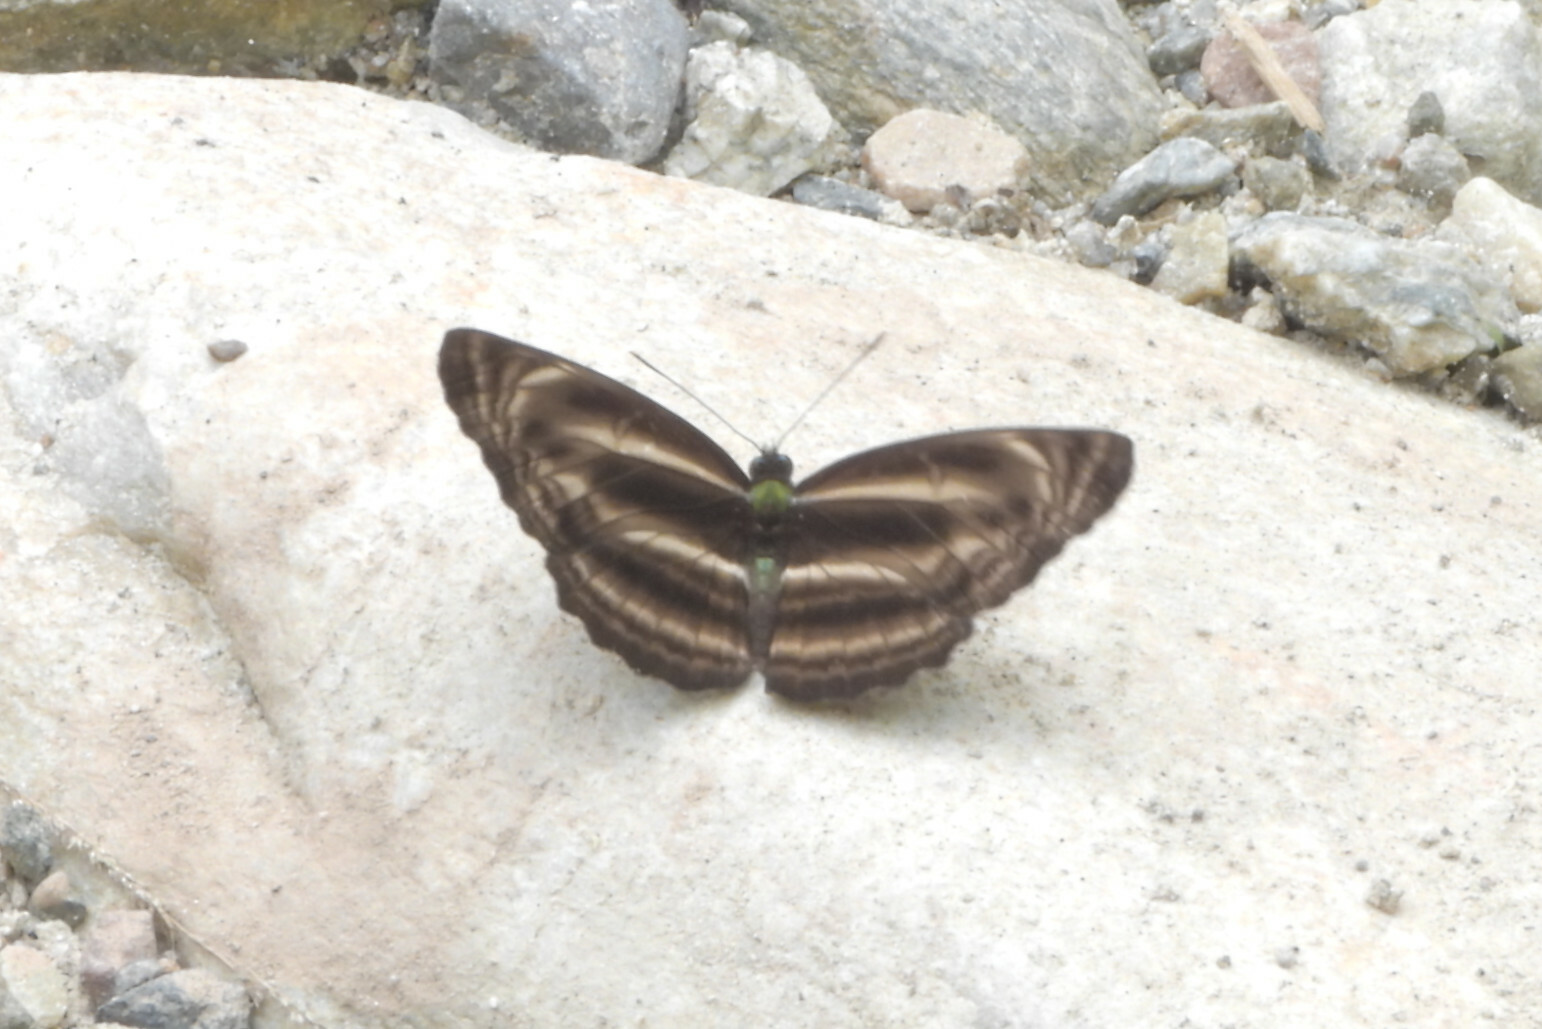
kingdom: Animalia
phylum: Arthropoda
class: Insecta
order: Lepidoptera
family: Nymphalidae
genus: Neptis
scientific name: Neptis
